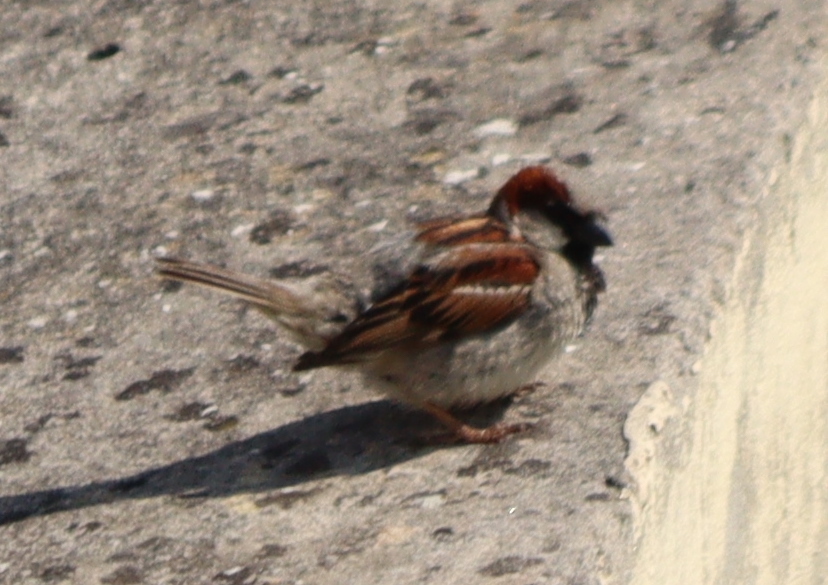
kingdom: Animalia
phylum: Chordata
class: Aves
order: Passeriformes
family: Passeridae
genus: Passer
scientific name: Passer domesticus
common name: House sparrow
